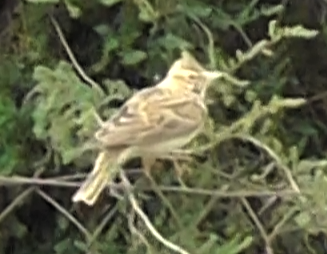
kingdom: Animalia
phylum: Chordata
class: Aves
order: Passeriformes
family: Alaudidae
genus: Galerida
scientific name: Galerida cristata
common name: Crested lark
